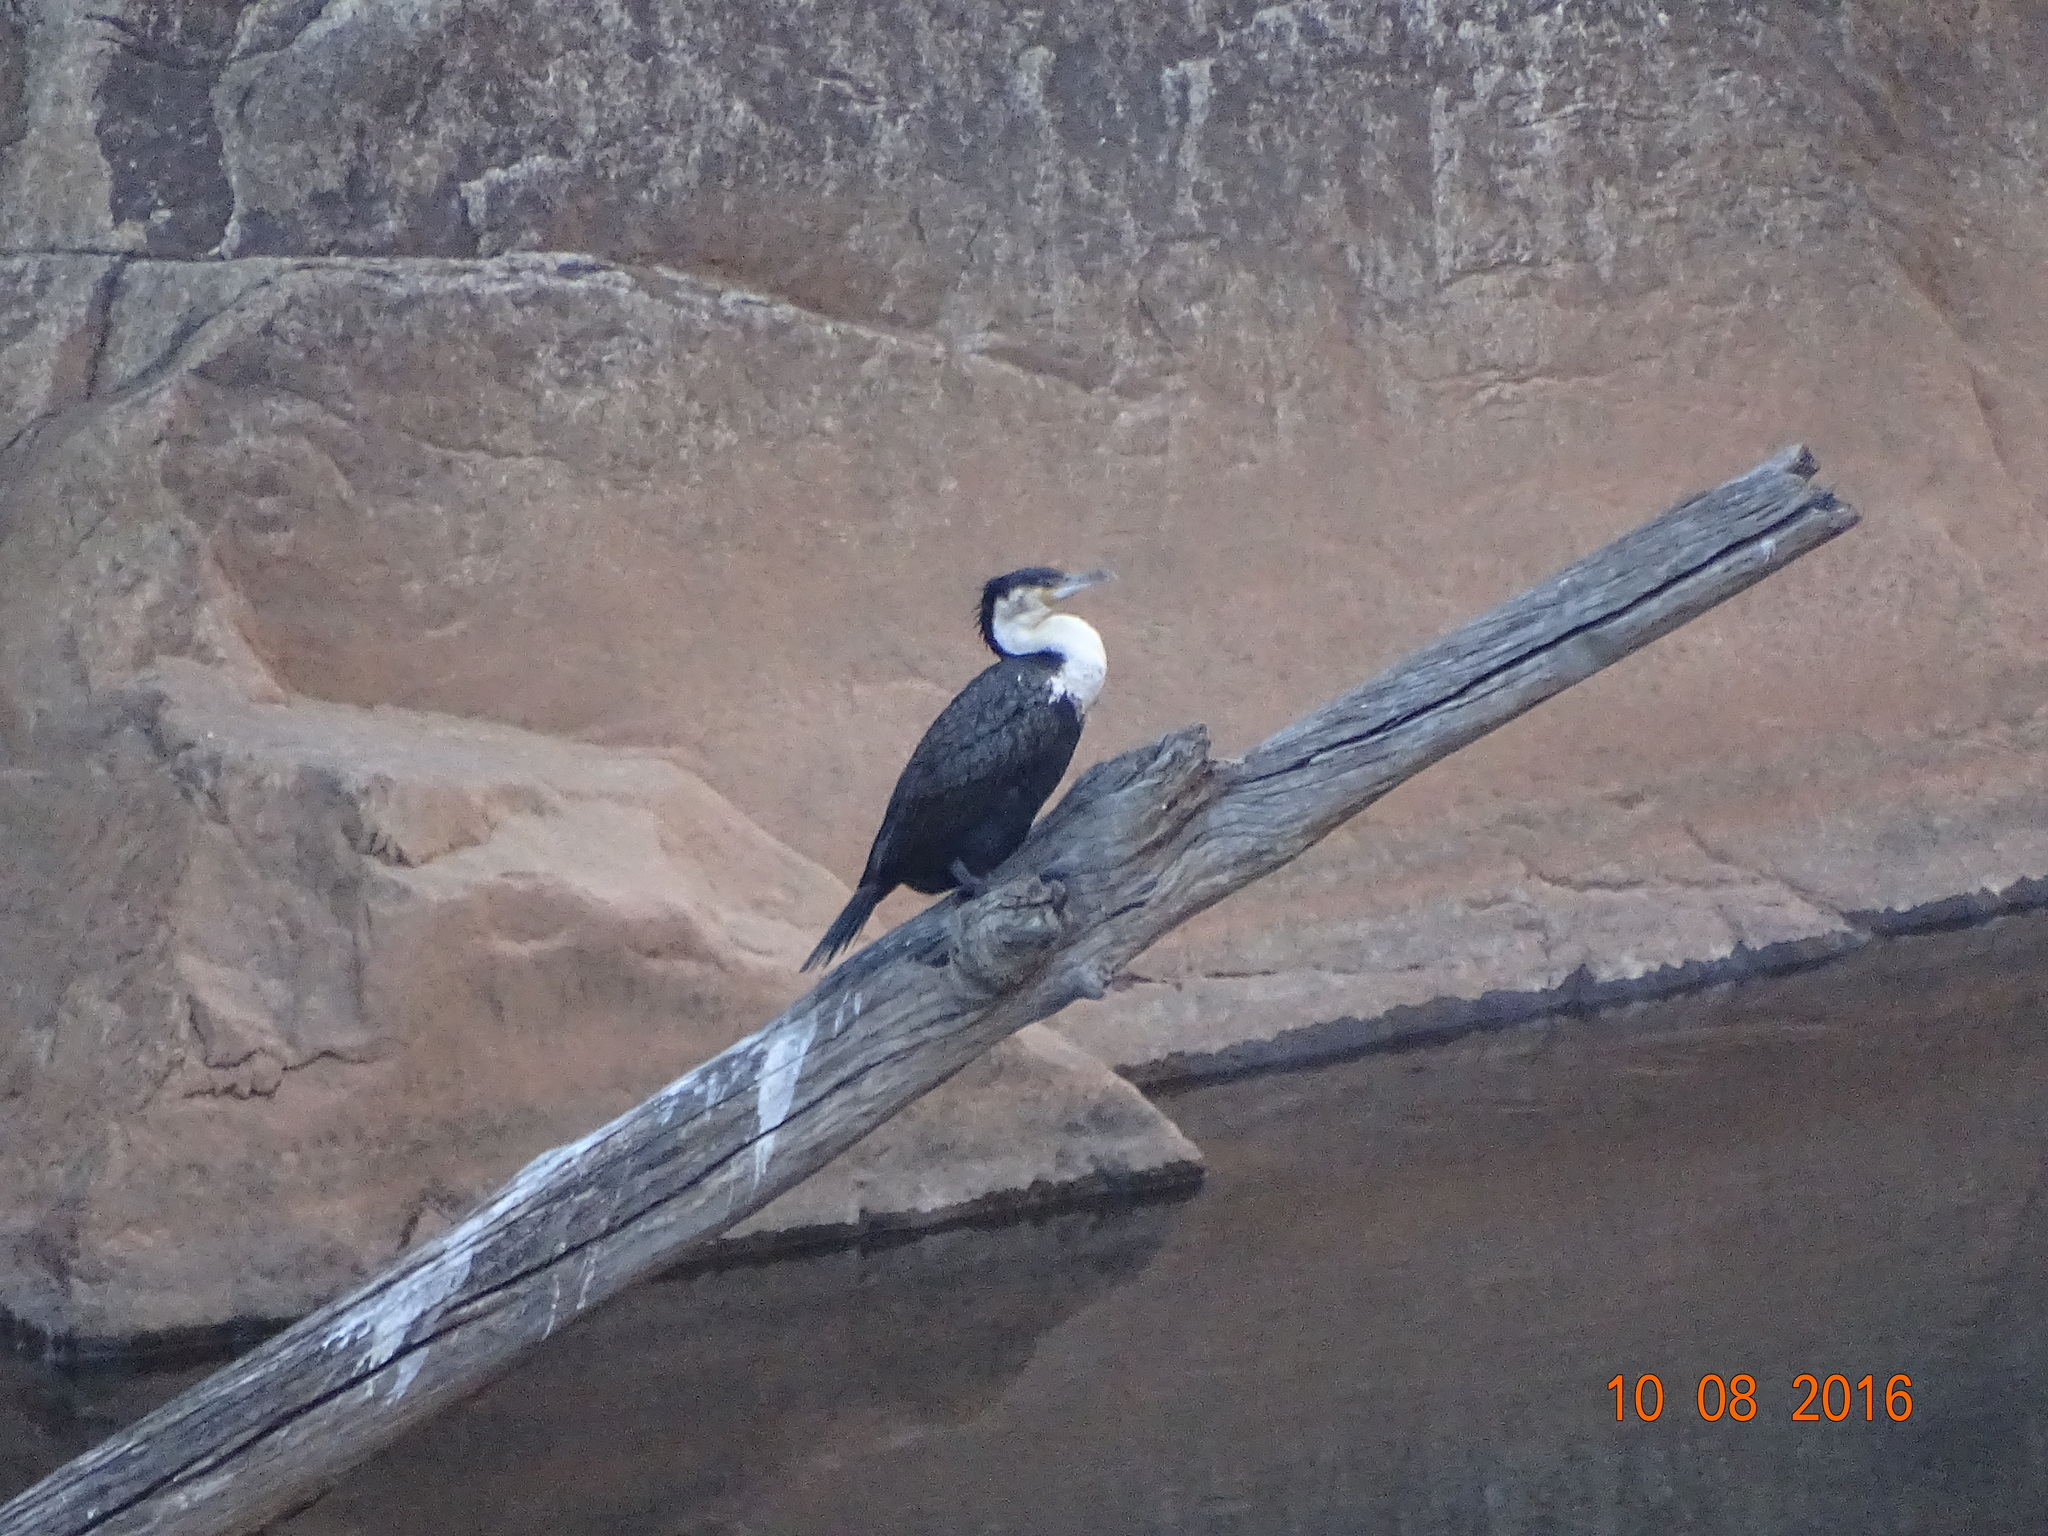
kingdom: Animalia
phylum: Chordata
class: Aves
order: Suliformes
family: Phalacrocoracidae
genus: Phalacrocorax
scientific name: Phalacrocorax carbo
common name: Great cormorant
